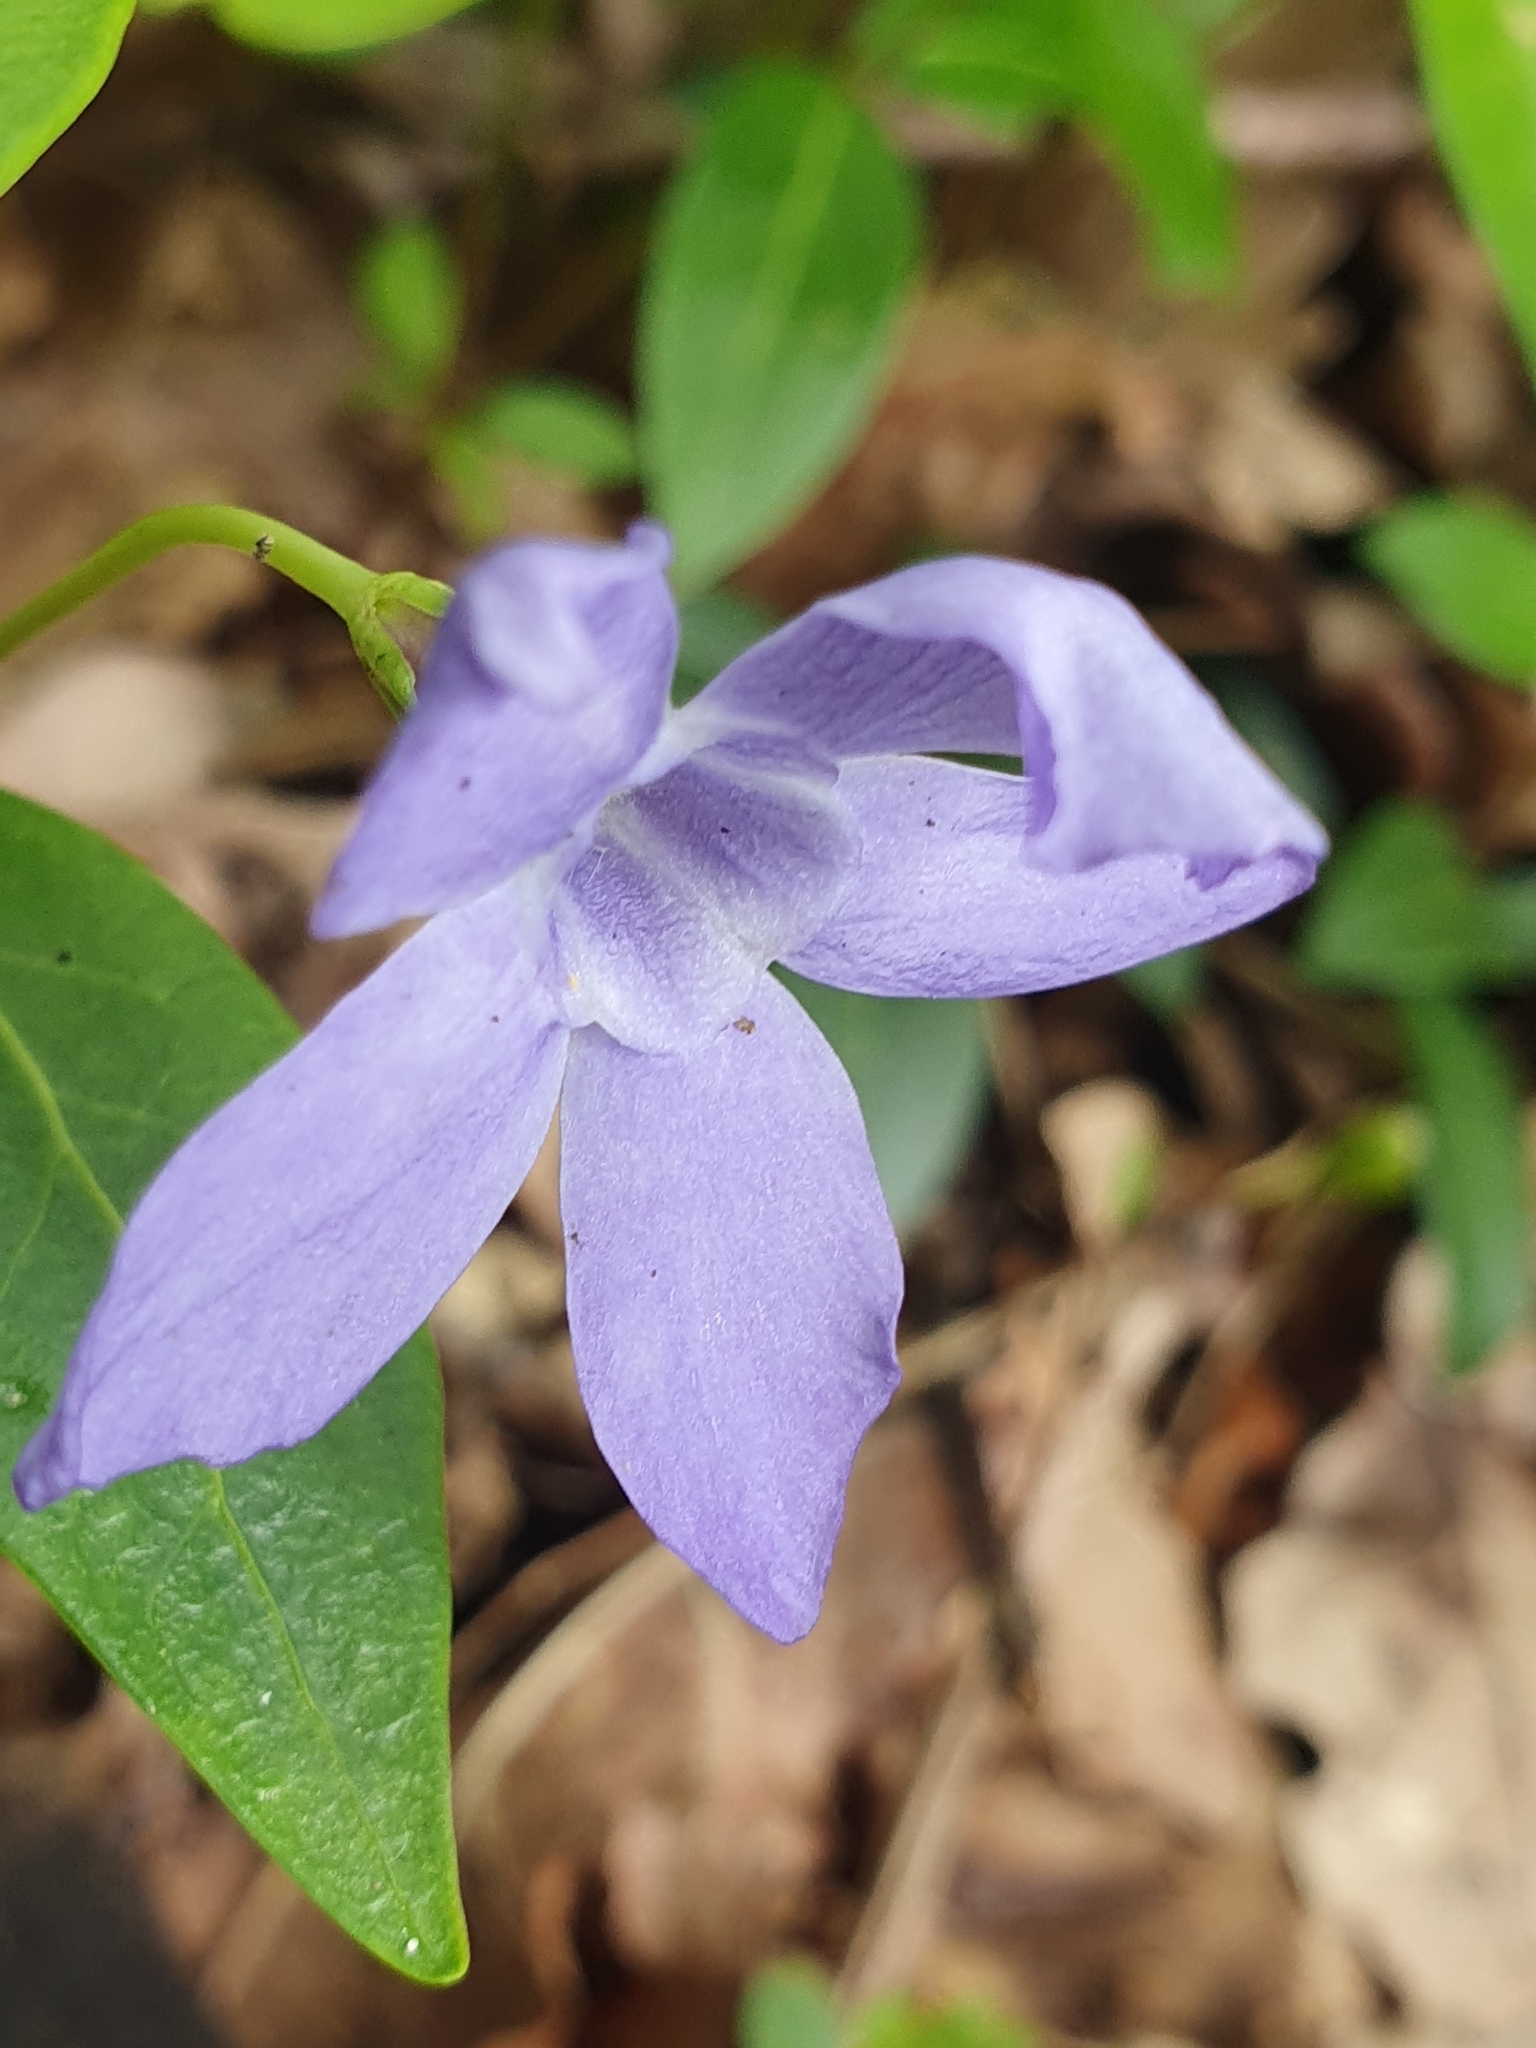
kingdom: Plantae
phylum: Tracheophyta
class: Magnoliopsida
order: Gentianales
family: Apocynaceae
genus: Vinca
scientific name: Vinca minor
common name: Lesser periwinkle
